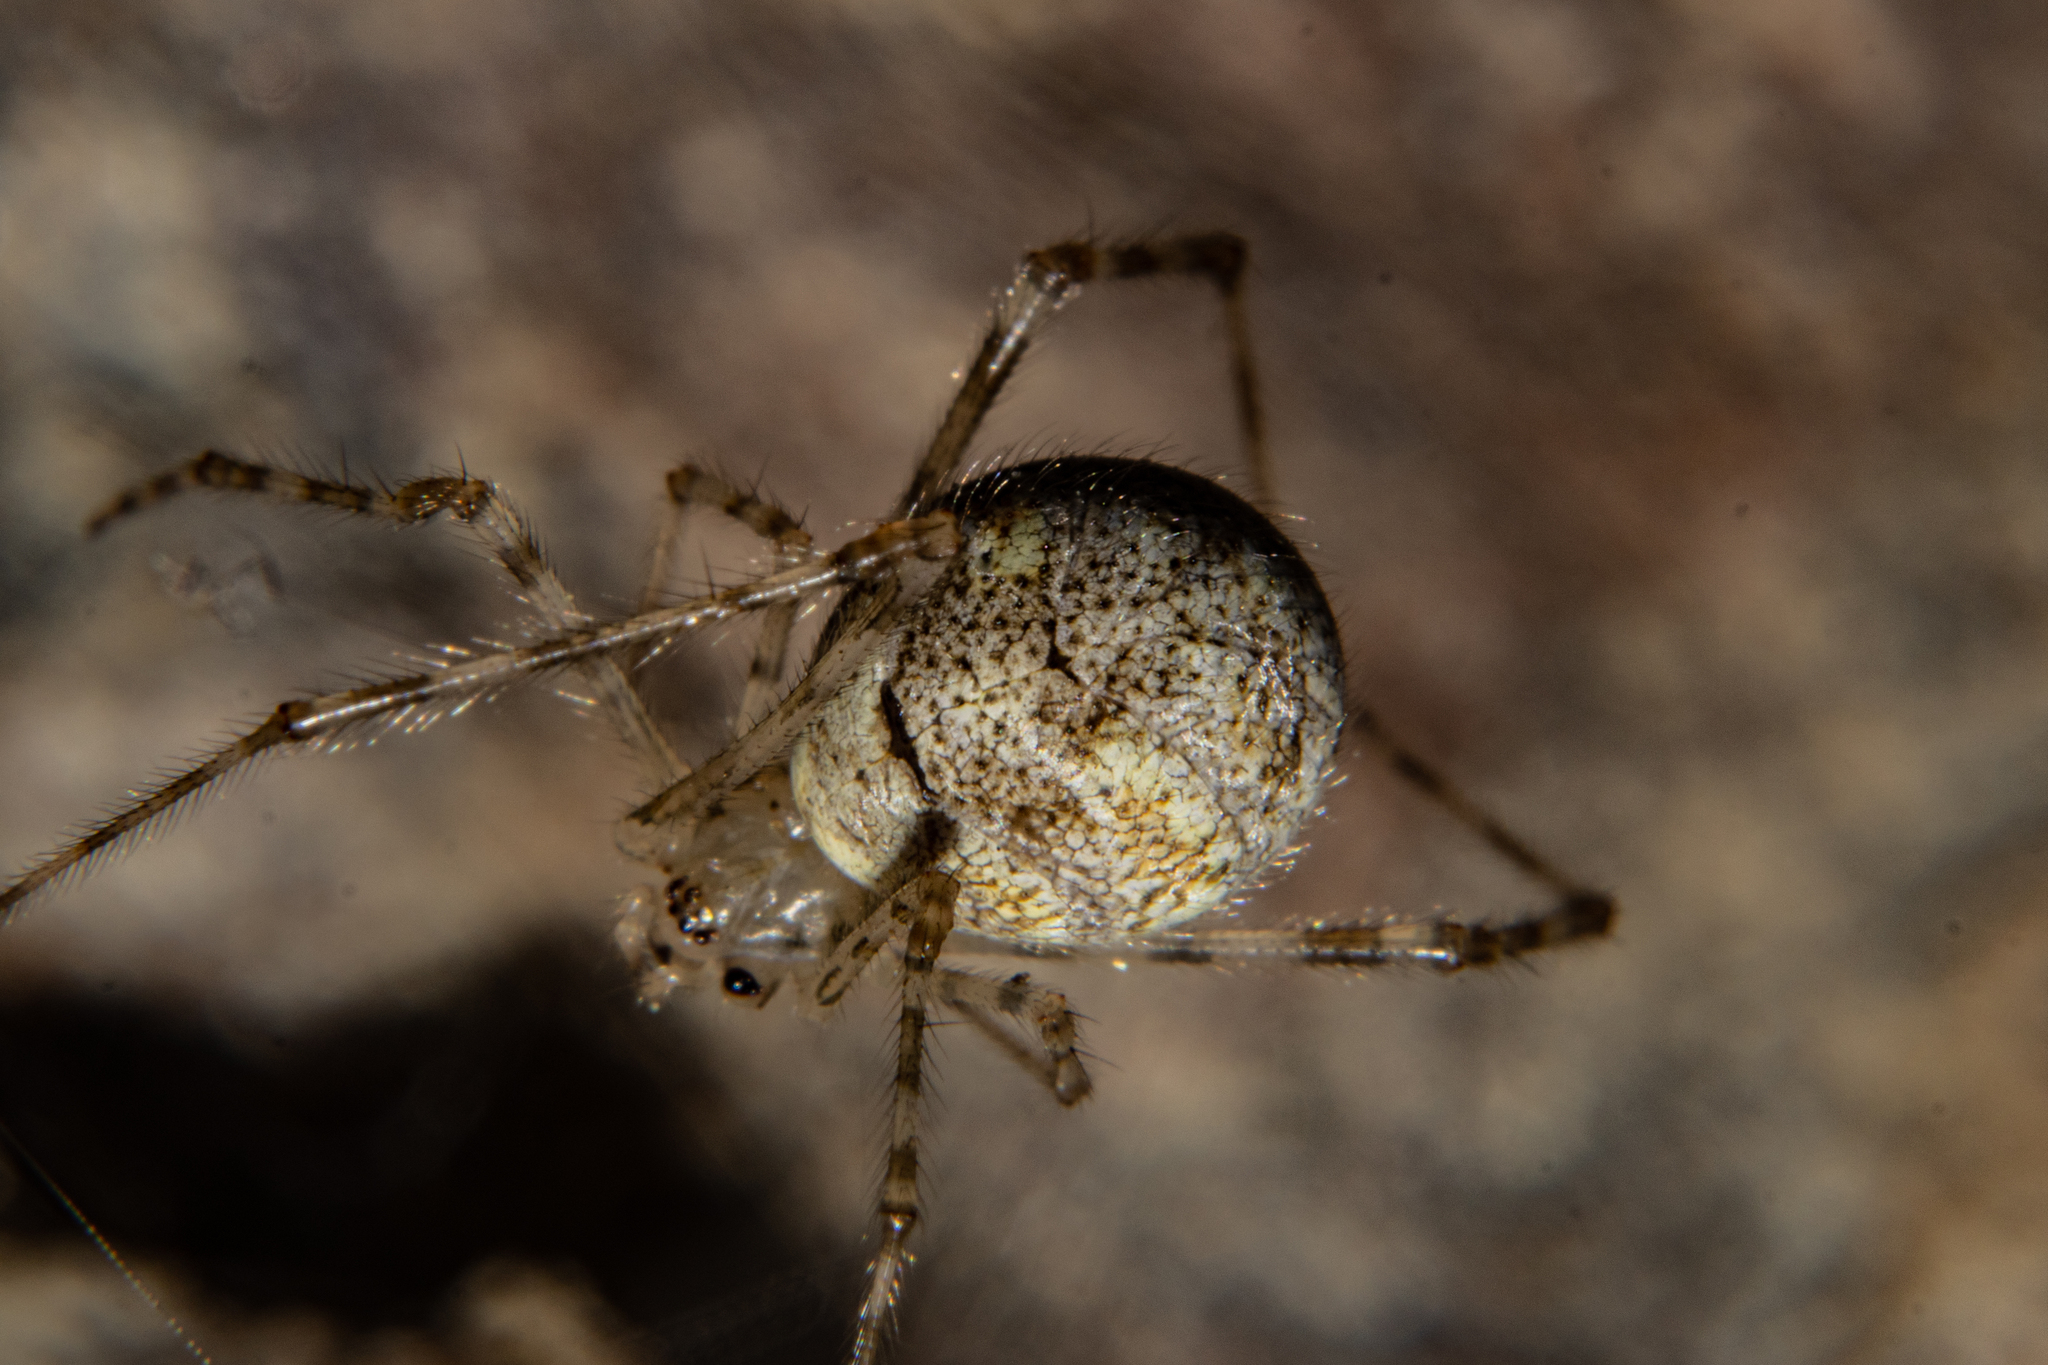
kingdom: Animalia
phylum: Arthropoda
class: Arachnida
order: Araneae
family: Theridiidae
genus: Cryptachaea
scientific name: Cryptachaea gigantipes
